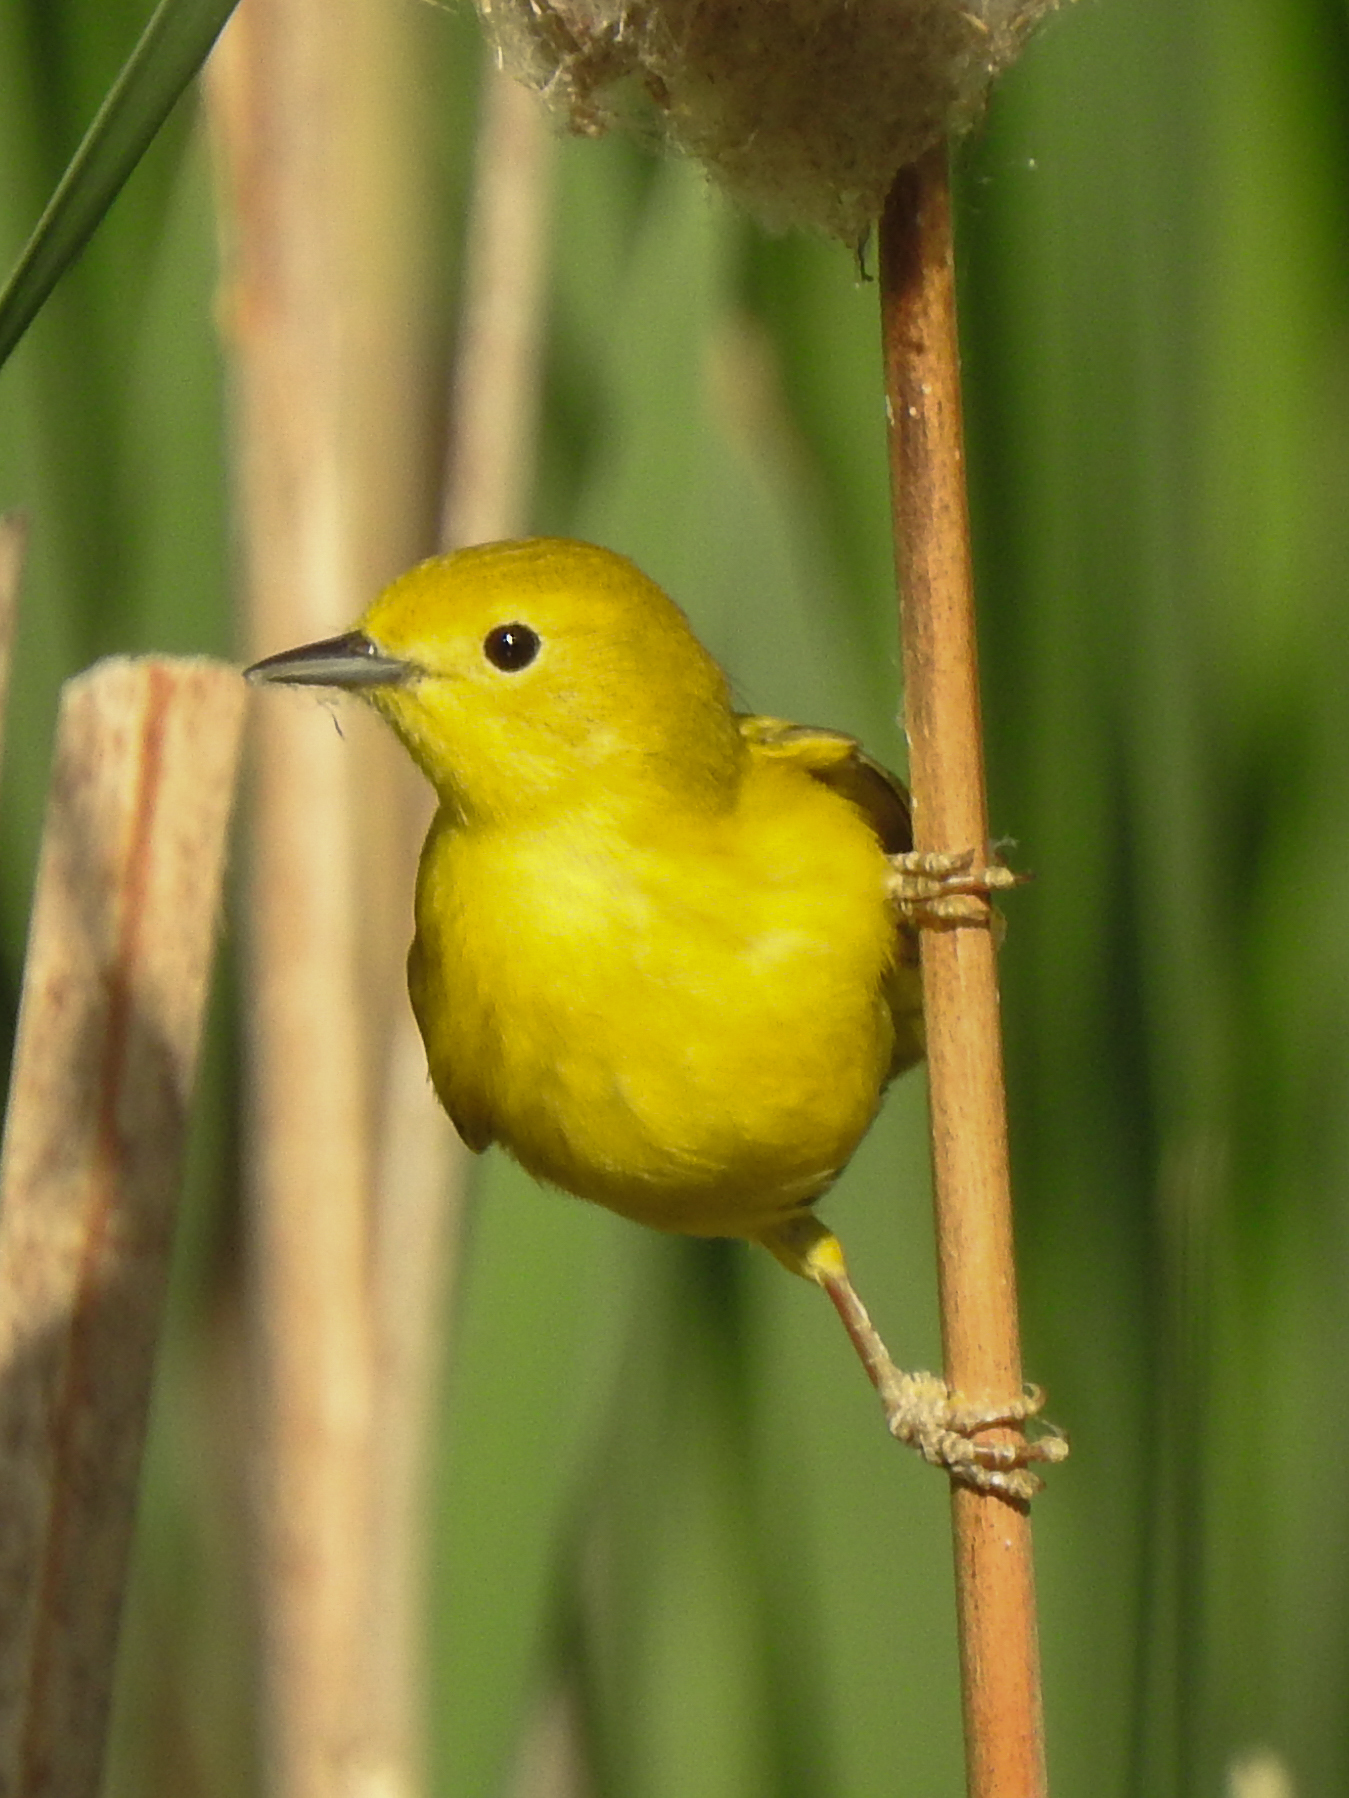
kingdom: Animalia
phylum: Chordata
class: Aves
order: Passeriformes
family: Parulidae
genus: Setophaga
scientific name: Setophaga petechia
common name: Yellow warbler
